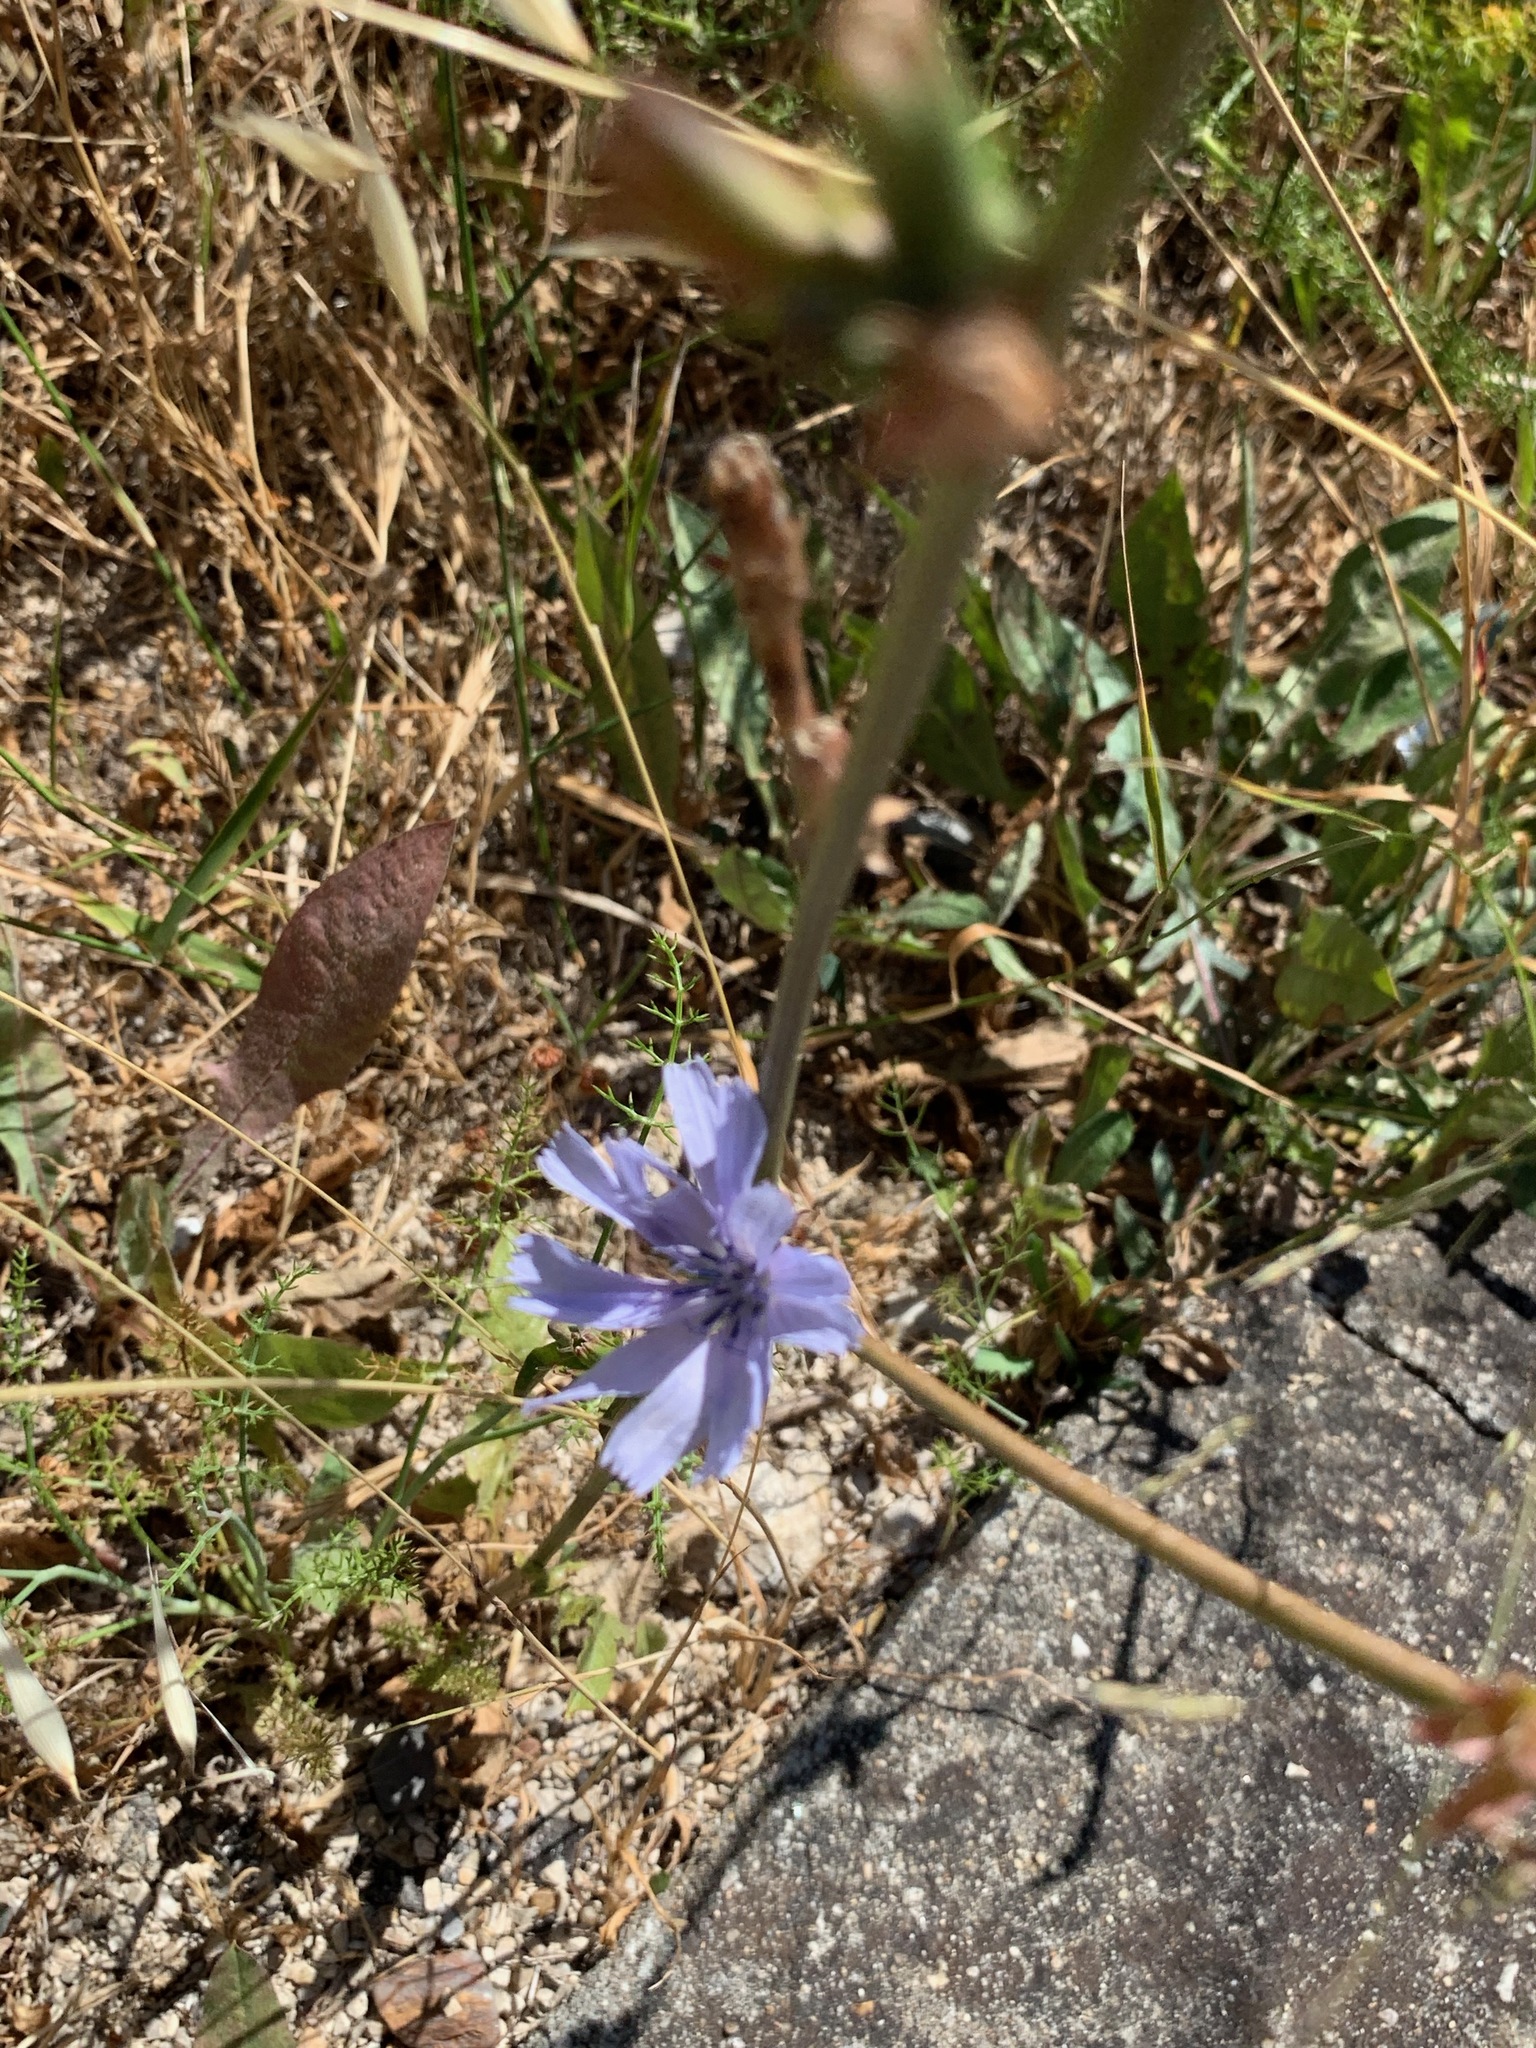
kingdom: Plantae
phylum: Tracheophyta
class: Magnoliopsida
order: Asterales
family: Asteraceae
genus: Cichorium
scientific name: Cichorium intybus
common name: Chicory
